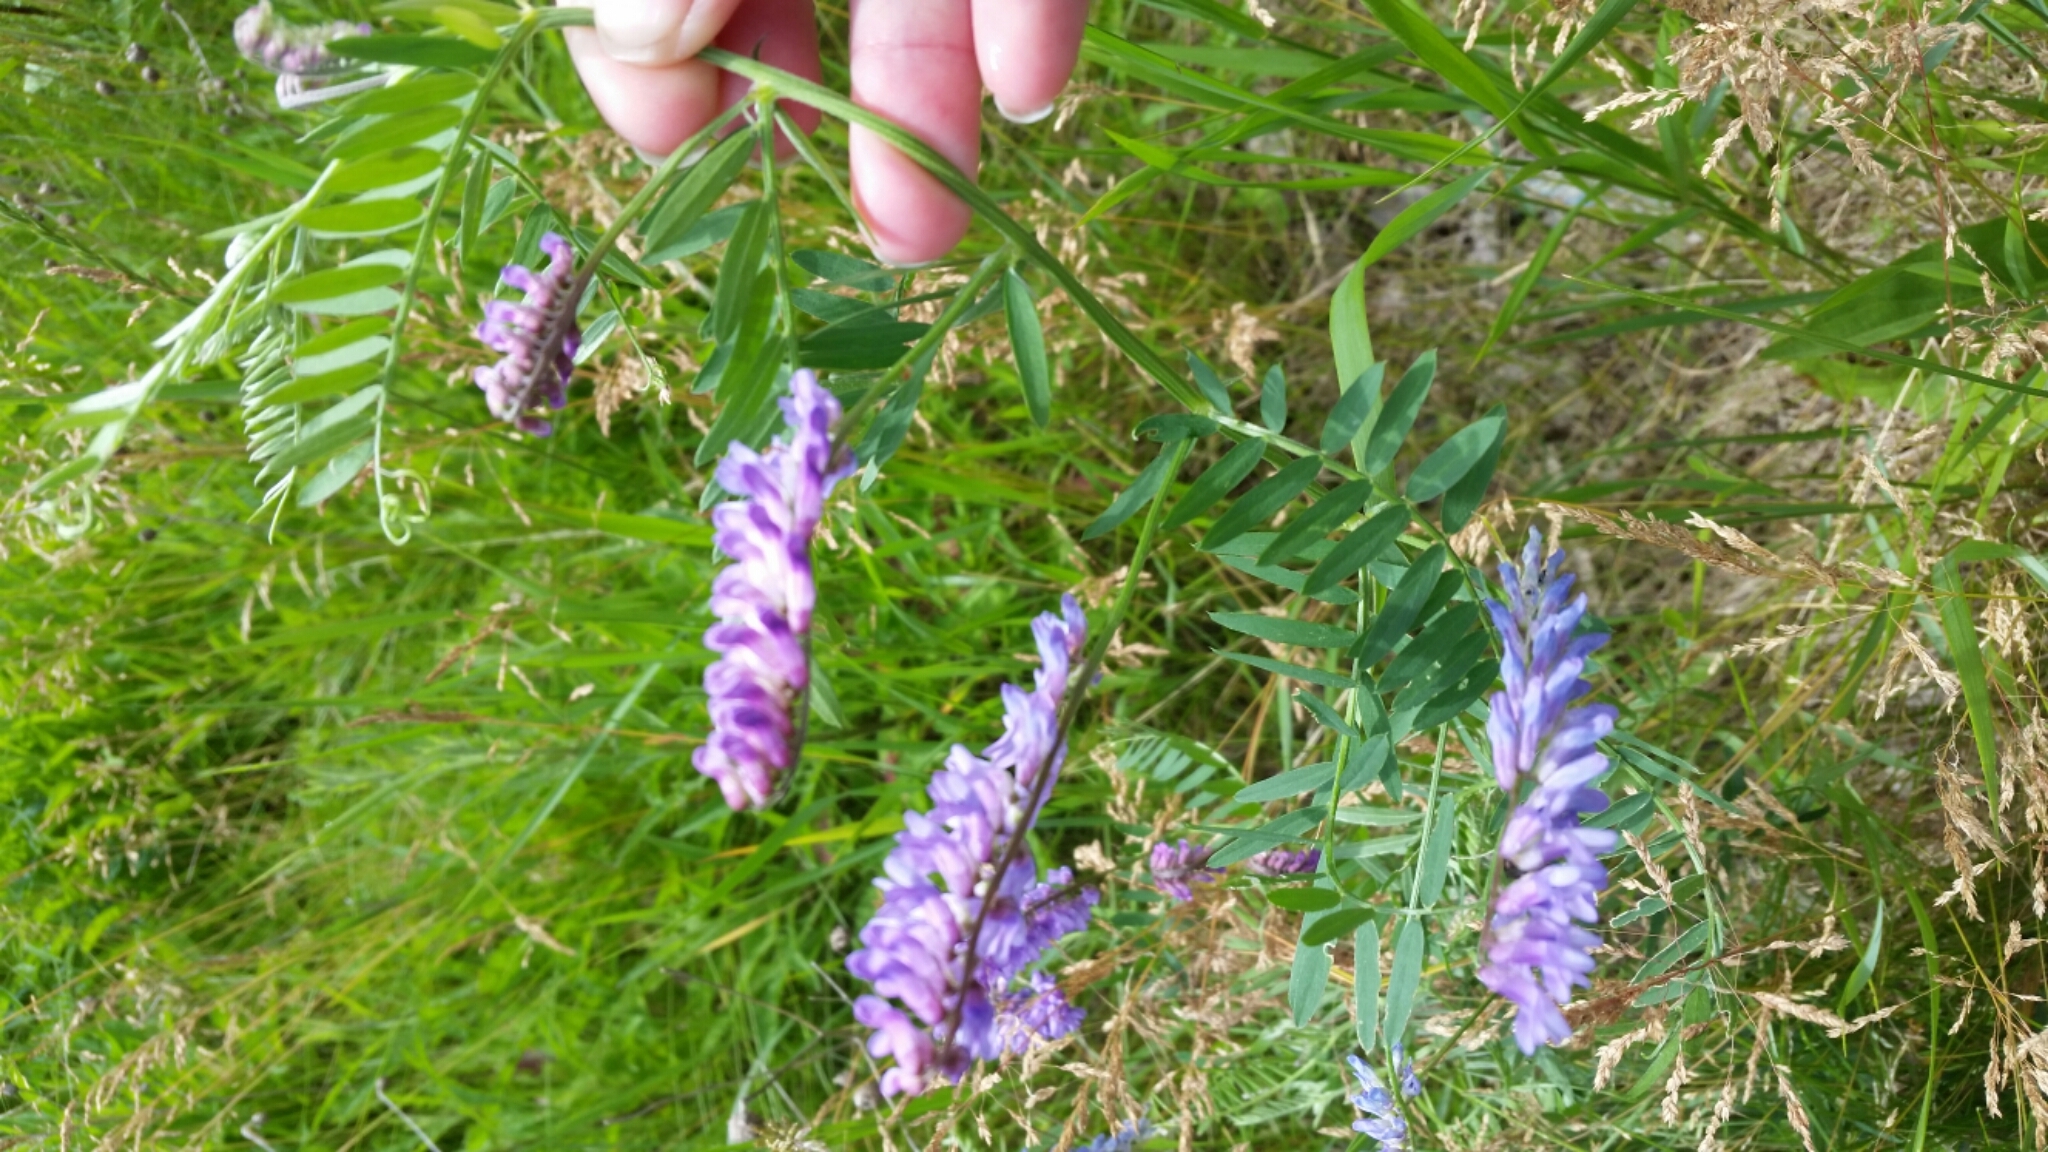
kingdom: Plantae
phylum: Tracheophyta
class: Magnoliopsida
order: Fabales
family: Fabaceae
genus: Vicia
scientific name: Vicia cracca
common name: Bird vetch
